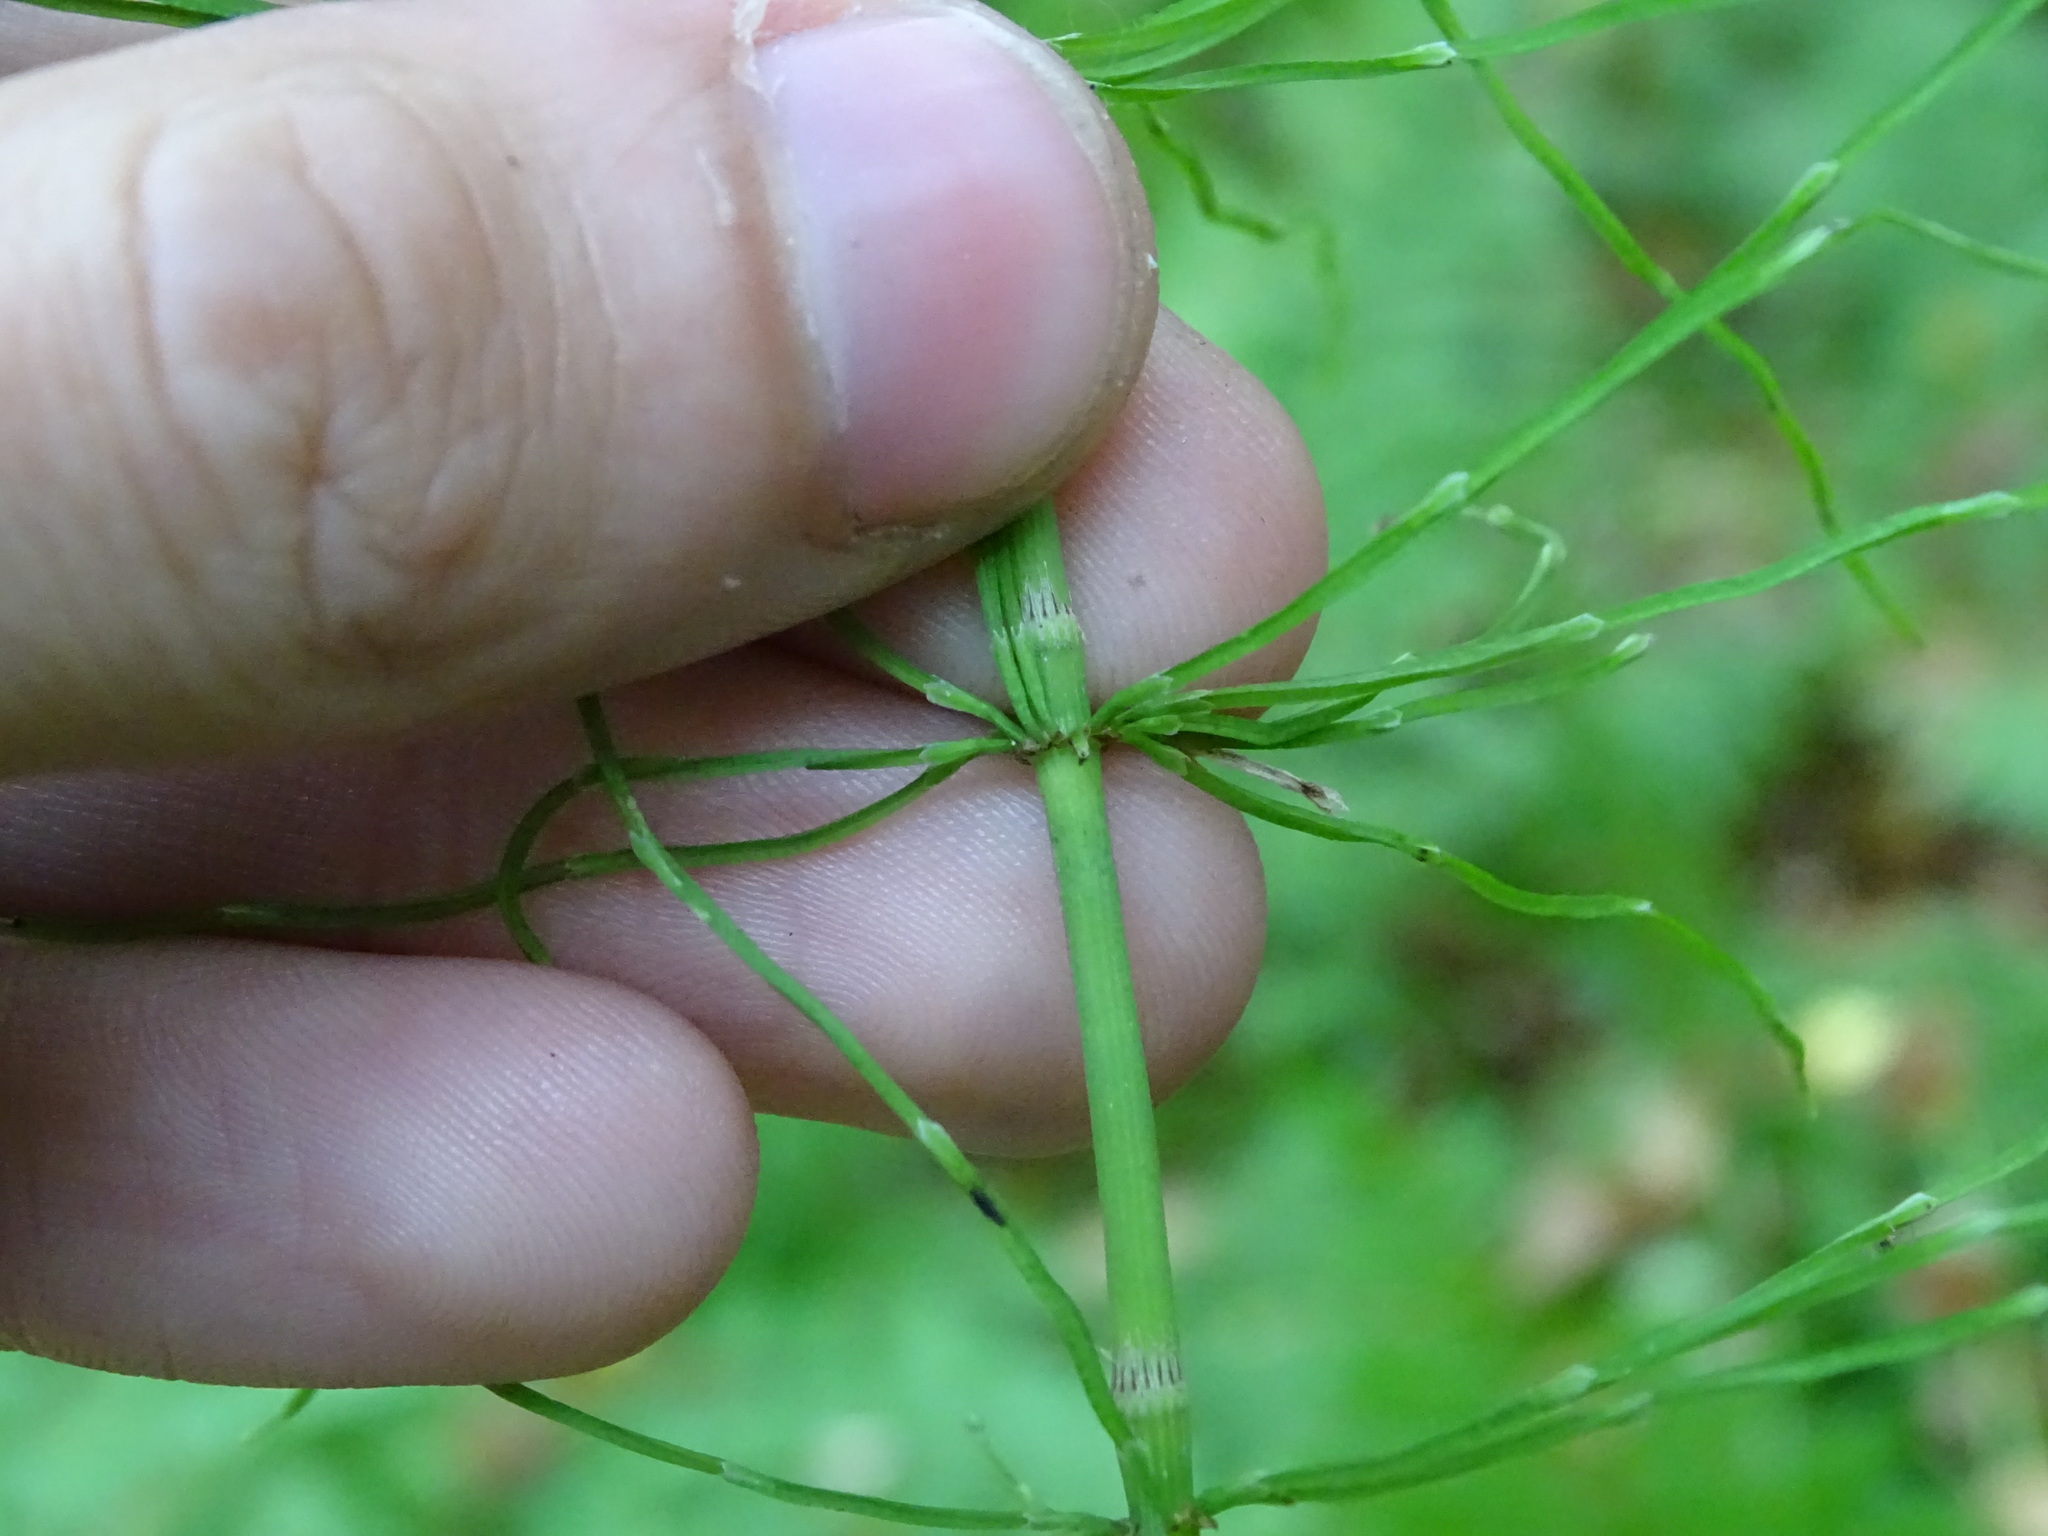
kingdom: Plantae
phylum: Tracheophyta
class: Polypodiopsida
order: Equisetales
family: Equisetaceae
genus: Equisetum
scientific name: Equisetum pratense
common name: Meadow horsetail
